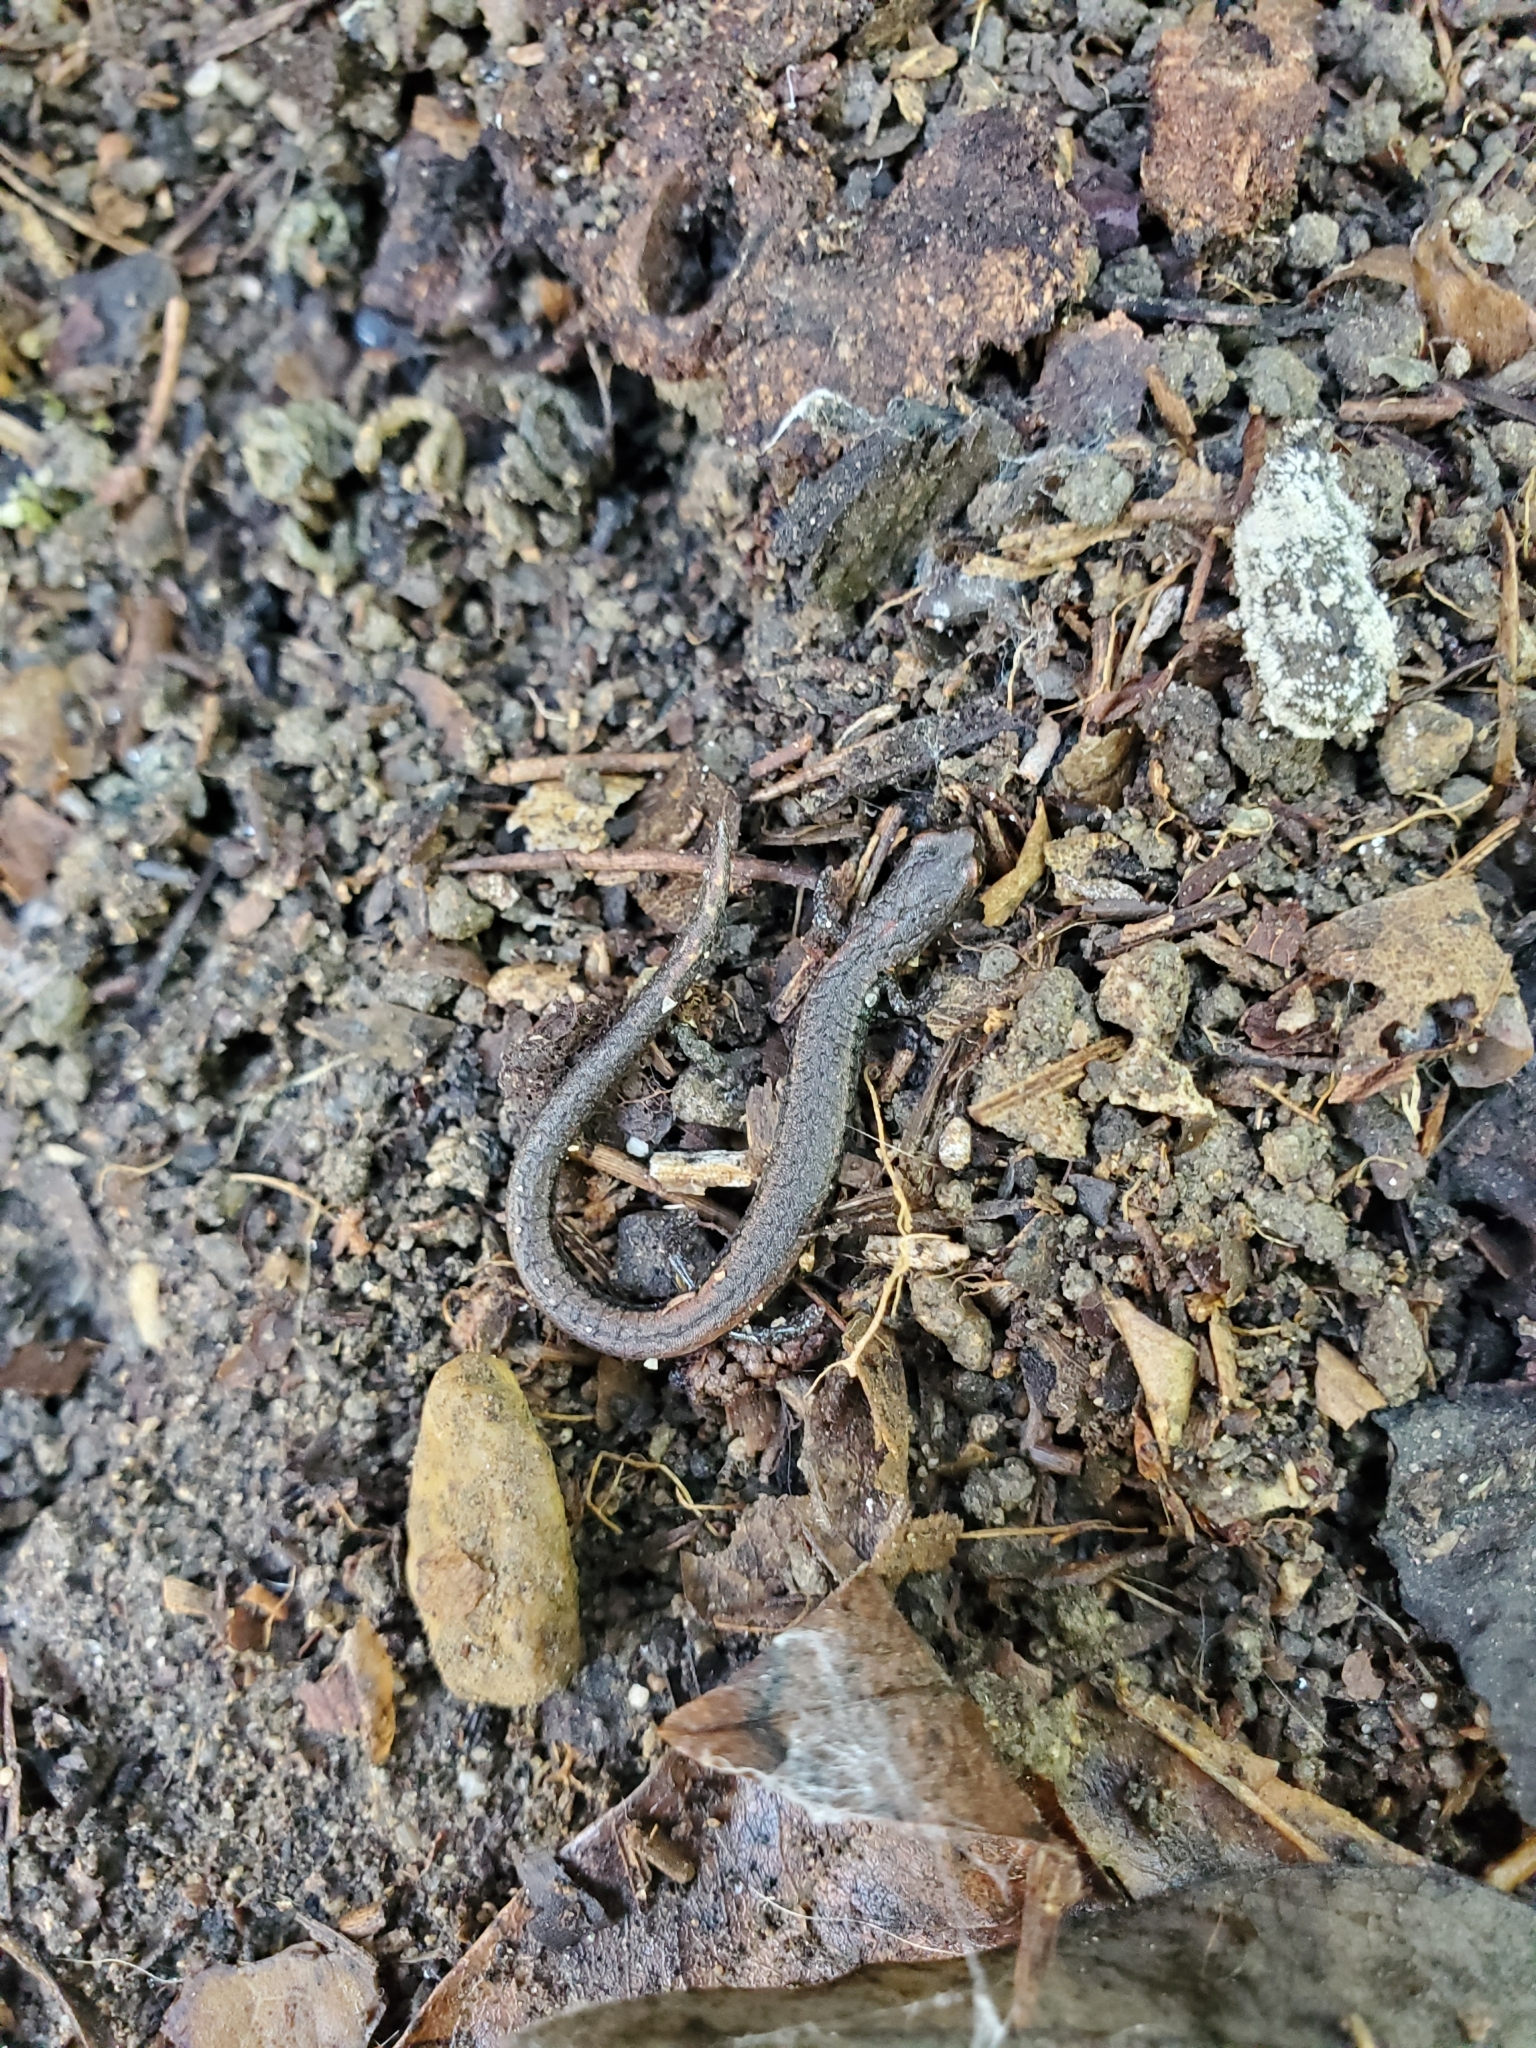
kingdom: Animalia
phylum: Chordata
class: Amphibia
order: Caudata
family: Plethodontidae
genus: Batrachoseps
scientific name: Batrachoseps nigriventris
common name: Black-bellied slender salamander
